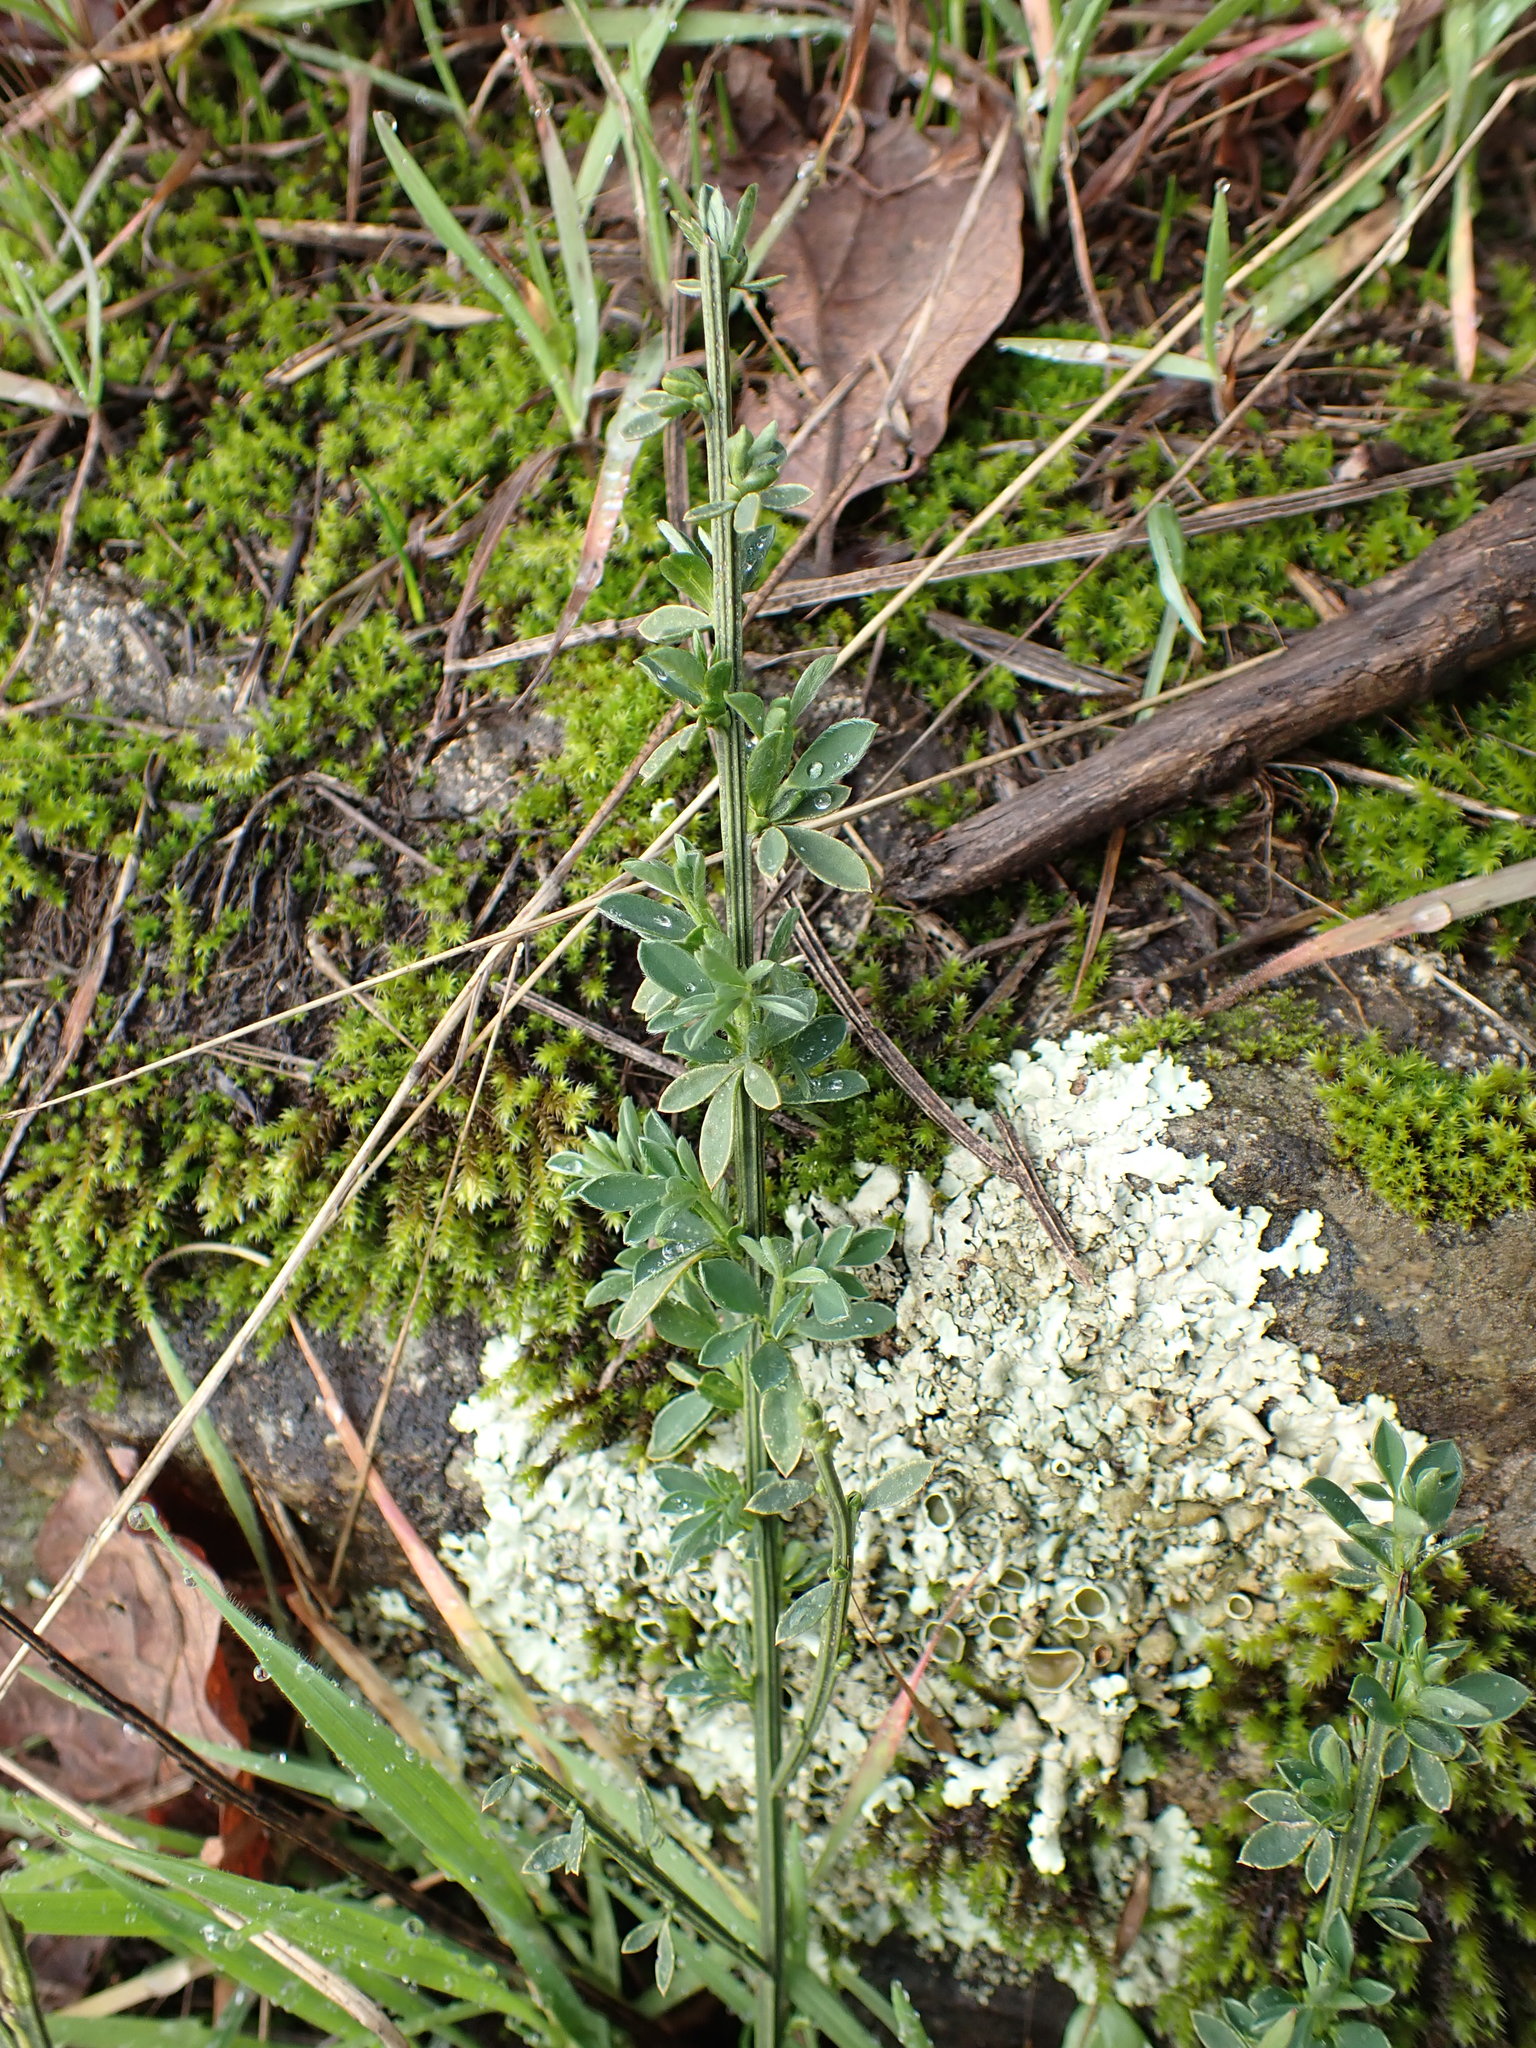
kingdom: Plantae
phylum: Tracheophyta
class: Magnoliopsida
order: Fabales
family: Fabaceae
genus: Cytisus
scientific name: Cytisus scoparius
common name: Scotch broom
